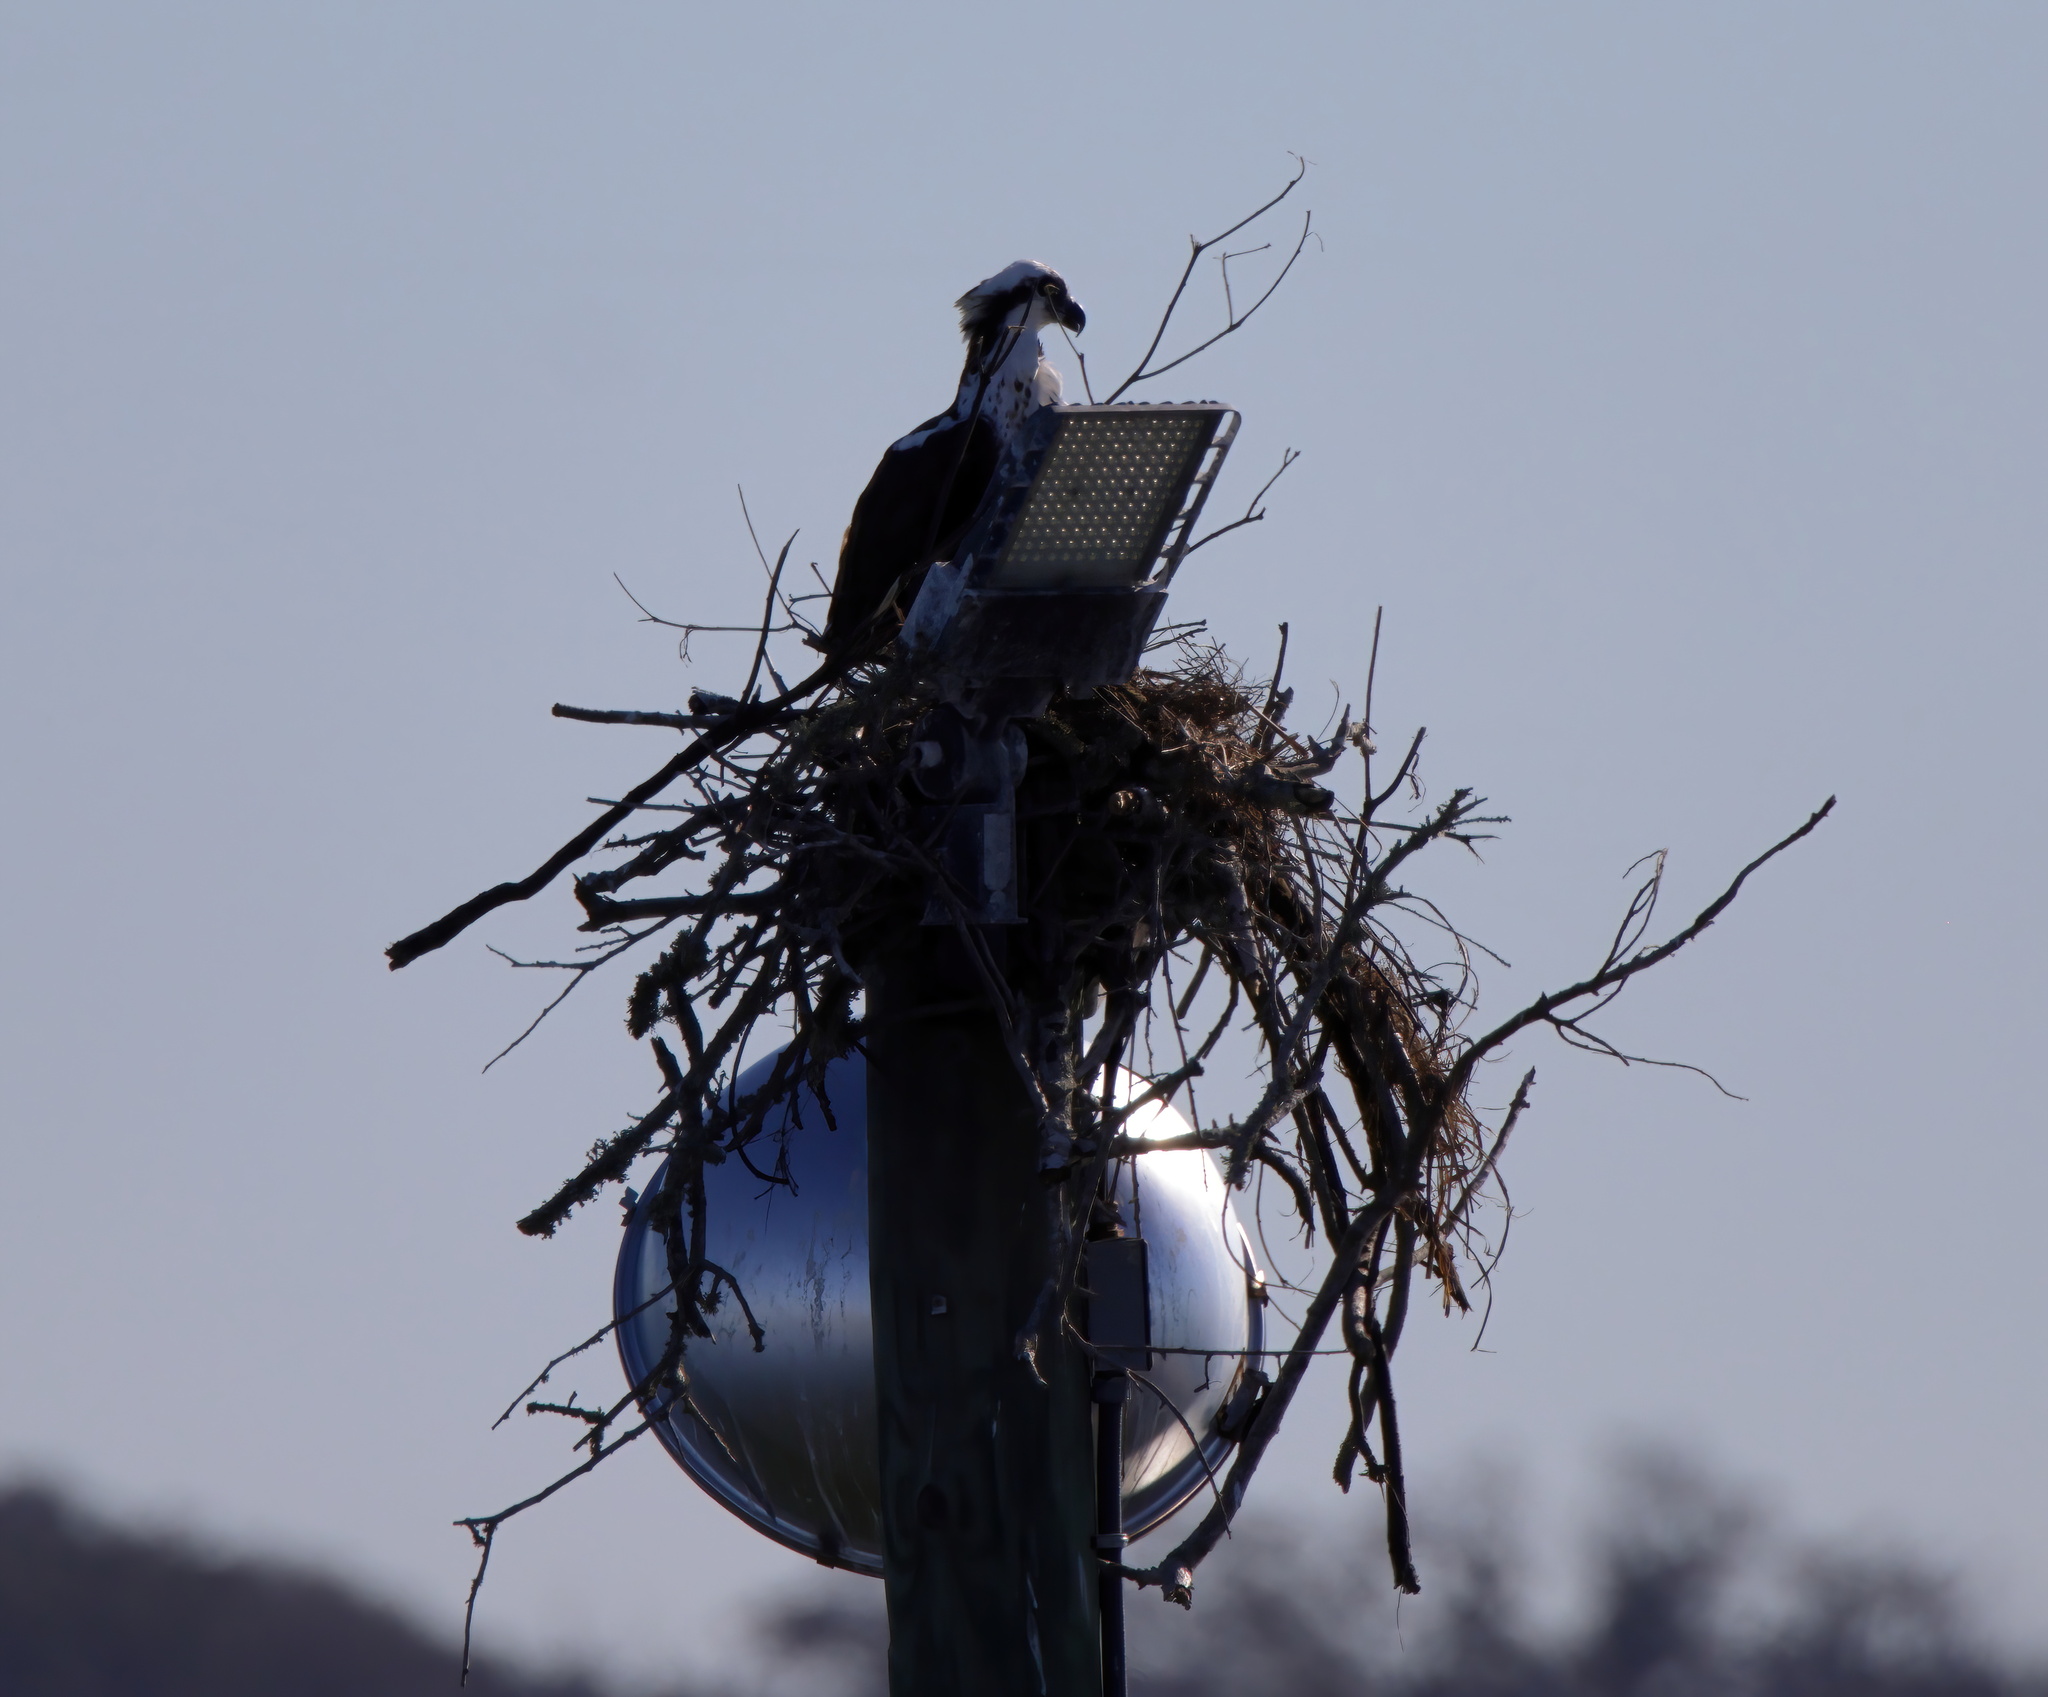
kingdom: Animalia
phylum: Chordata
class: Aves
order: Accipitriformes
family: Pandionidae
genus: Pandion
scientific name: Pandion haliaetus
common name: Osprey
